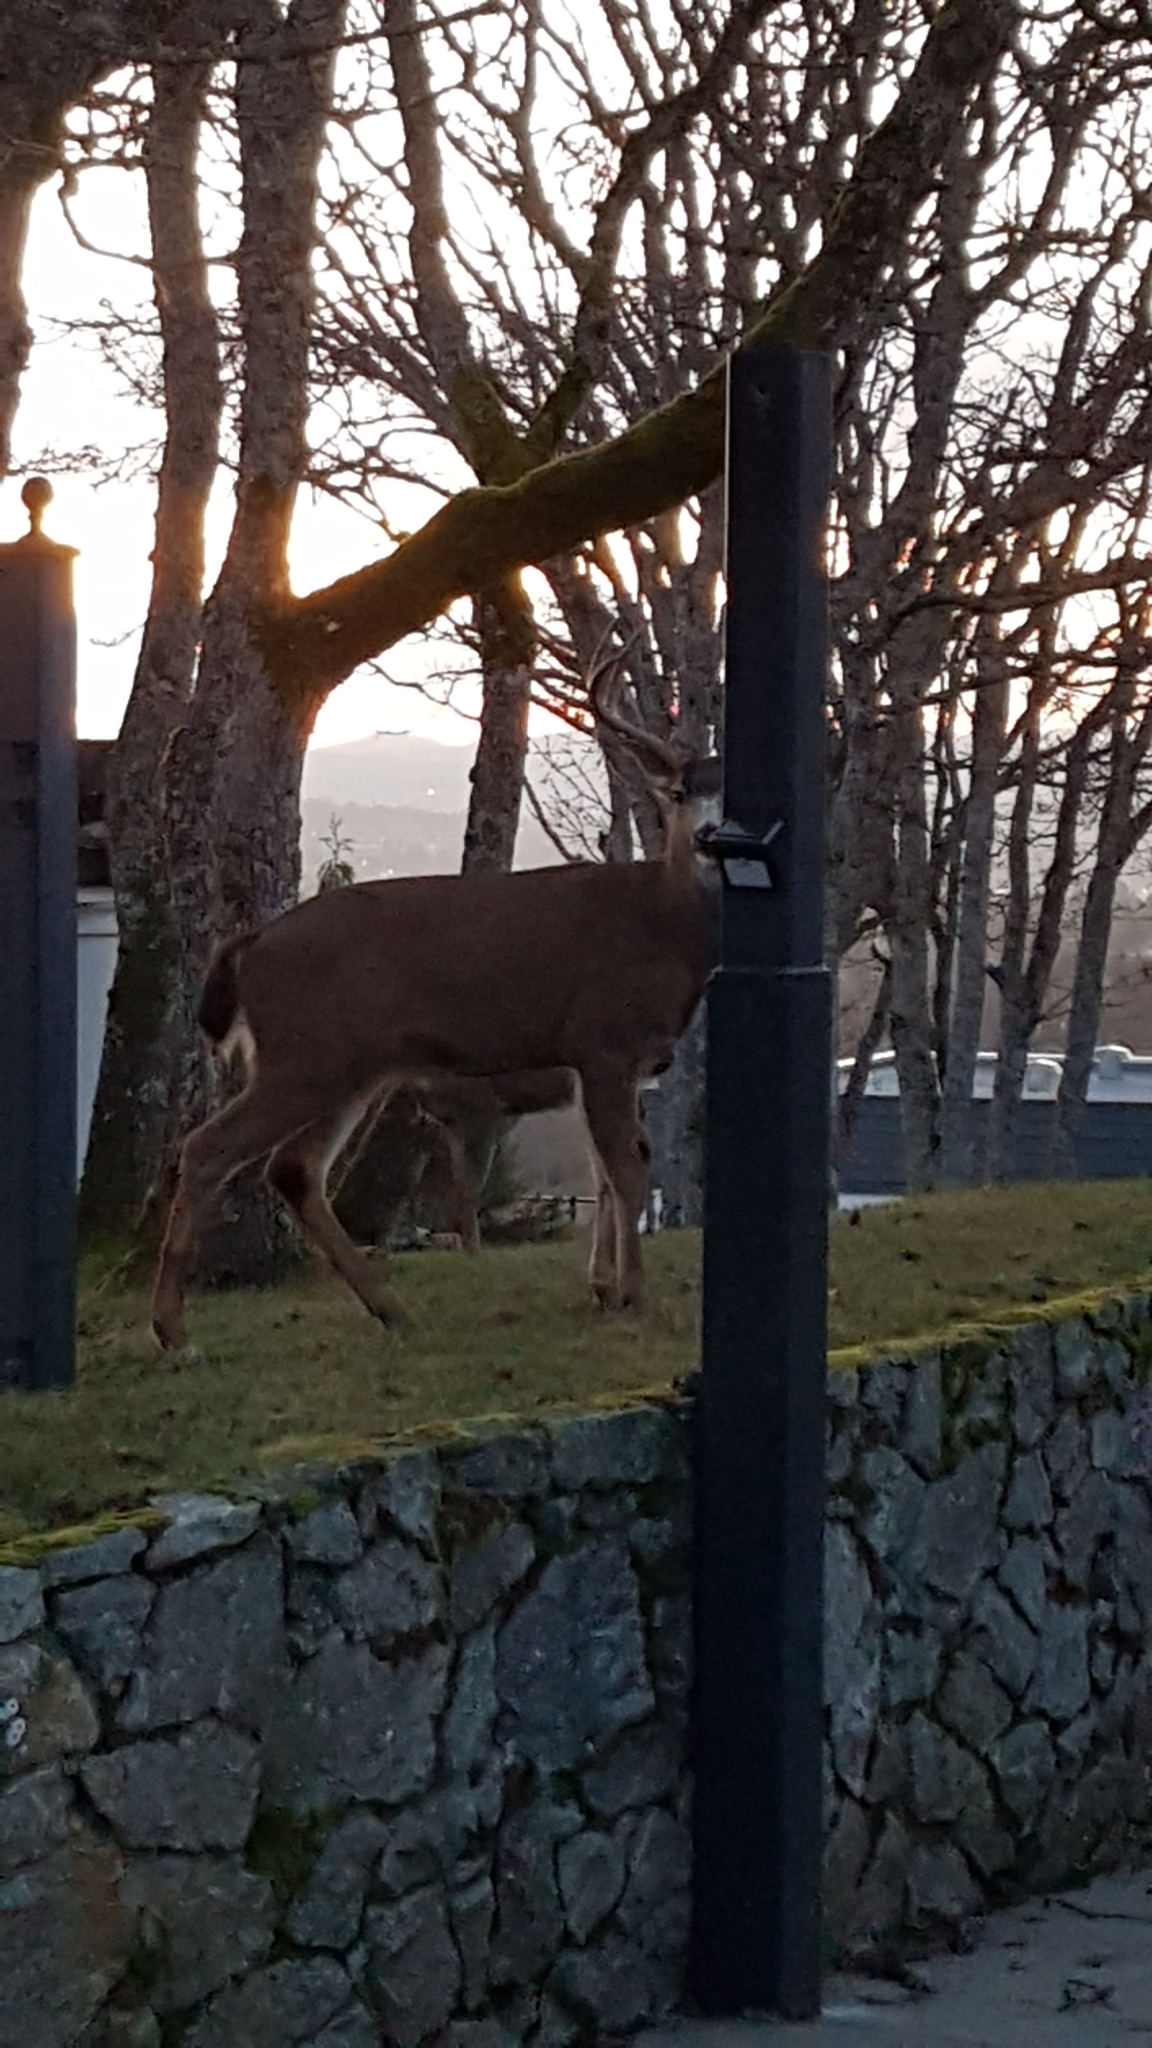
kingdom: Animalia
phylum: Chordata
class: Mammalia
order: Artiodactyla
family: Cervidae
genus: Odocoileus
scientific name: Odocoileus hemionus
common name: Mule deer
